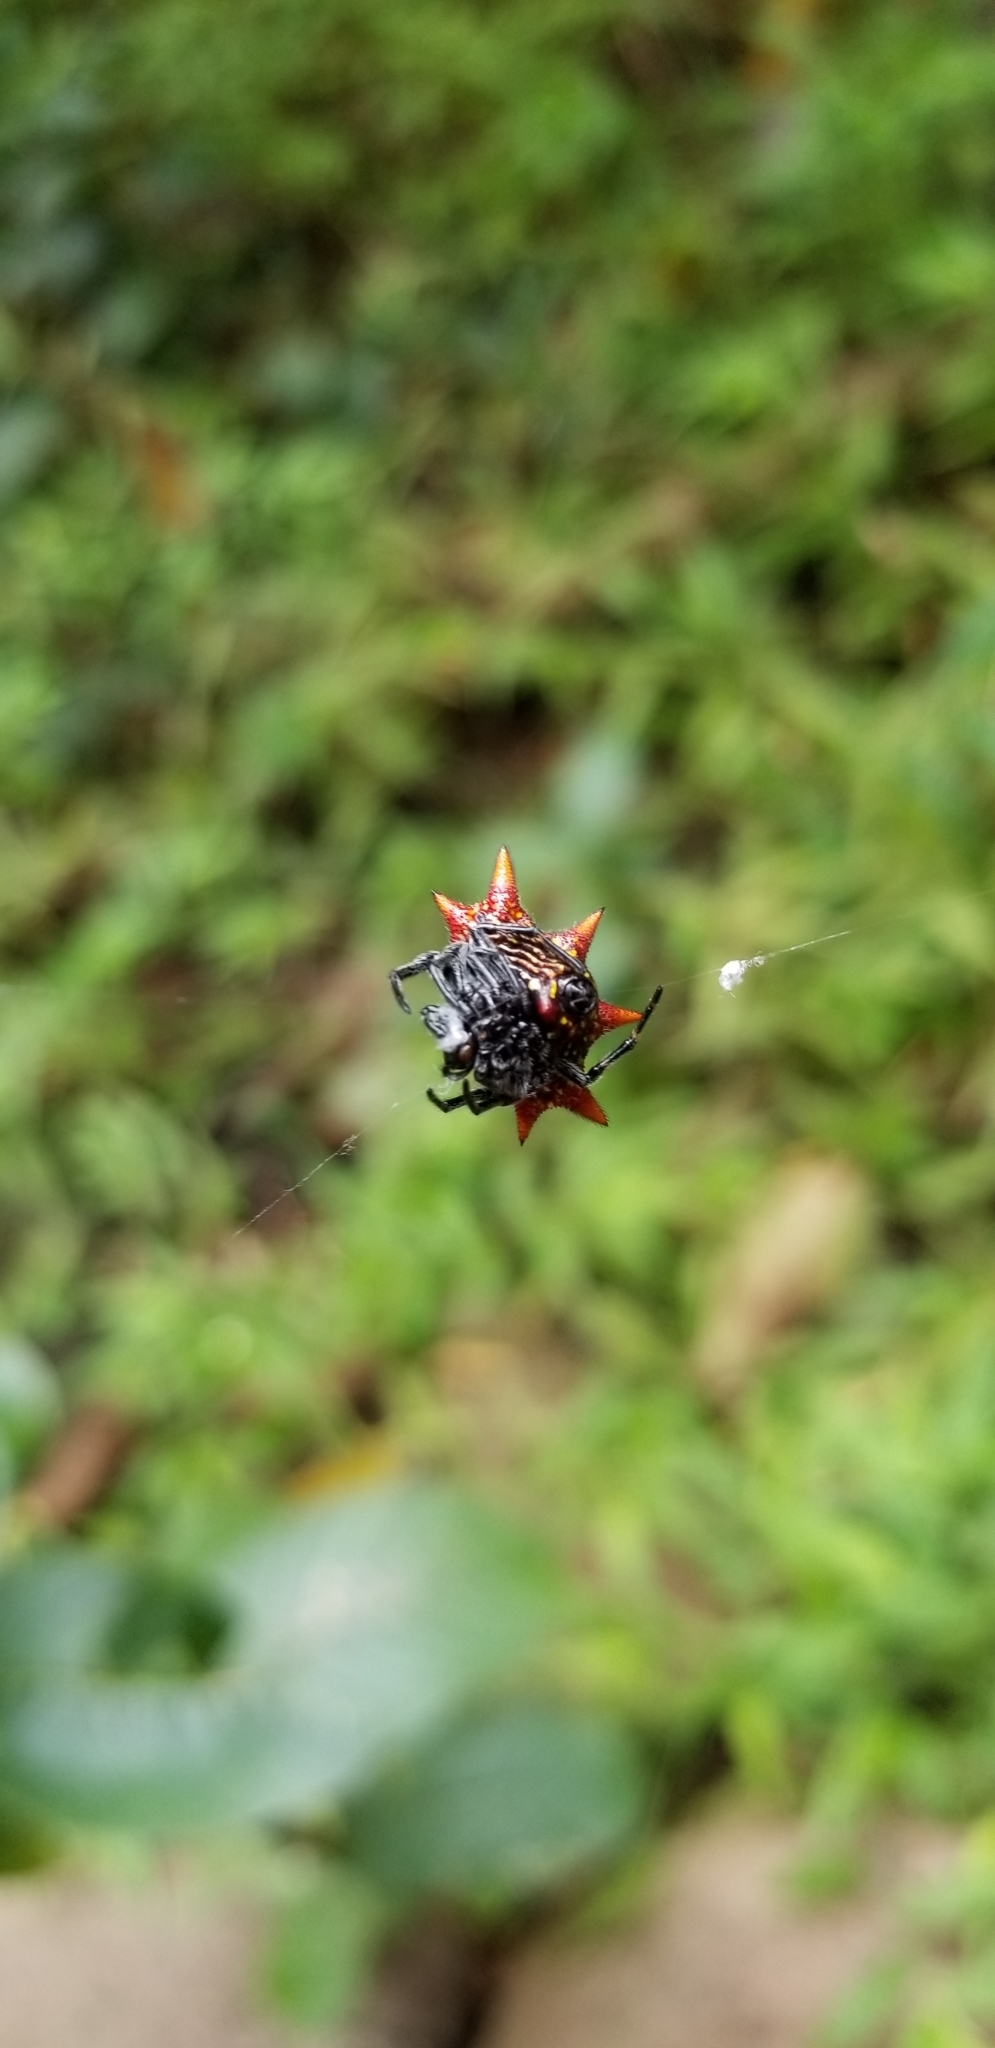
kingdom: Animalia
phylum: Arthropoda
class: Arachnida
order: Araneae
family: Araneidae
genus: Gasteracantha
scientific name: Gasteracantha cancriformis
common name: Orb weavers
